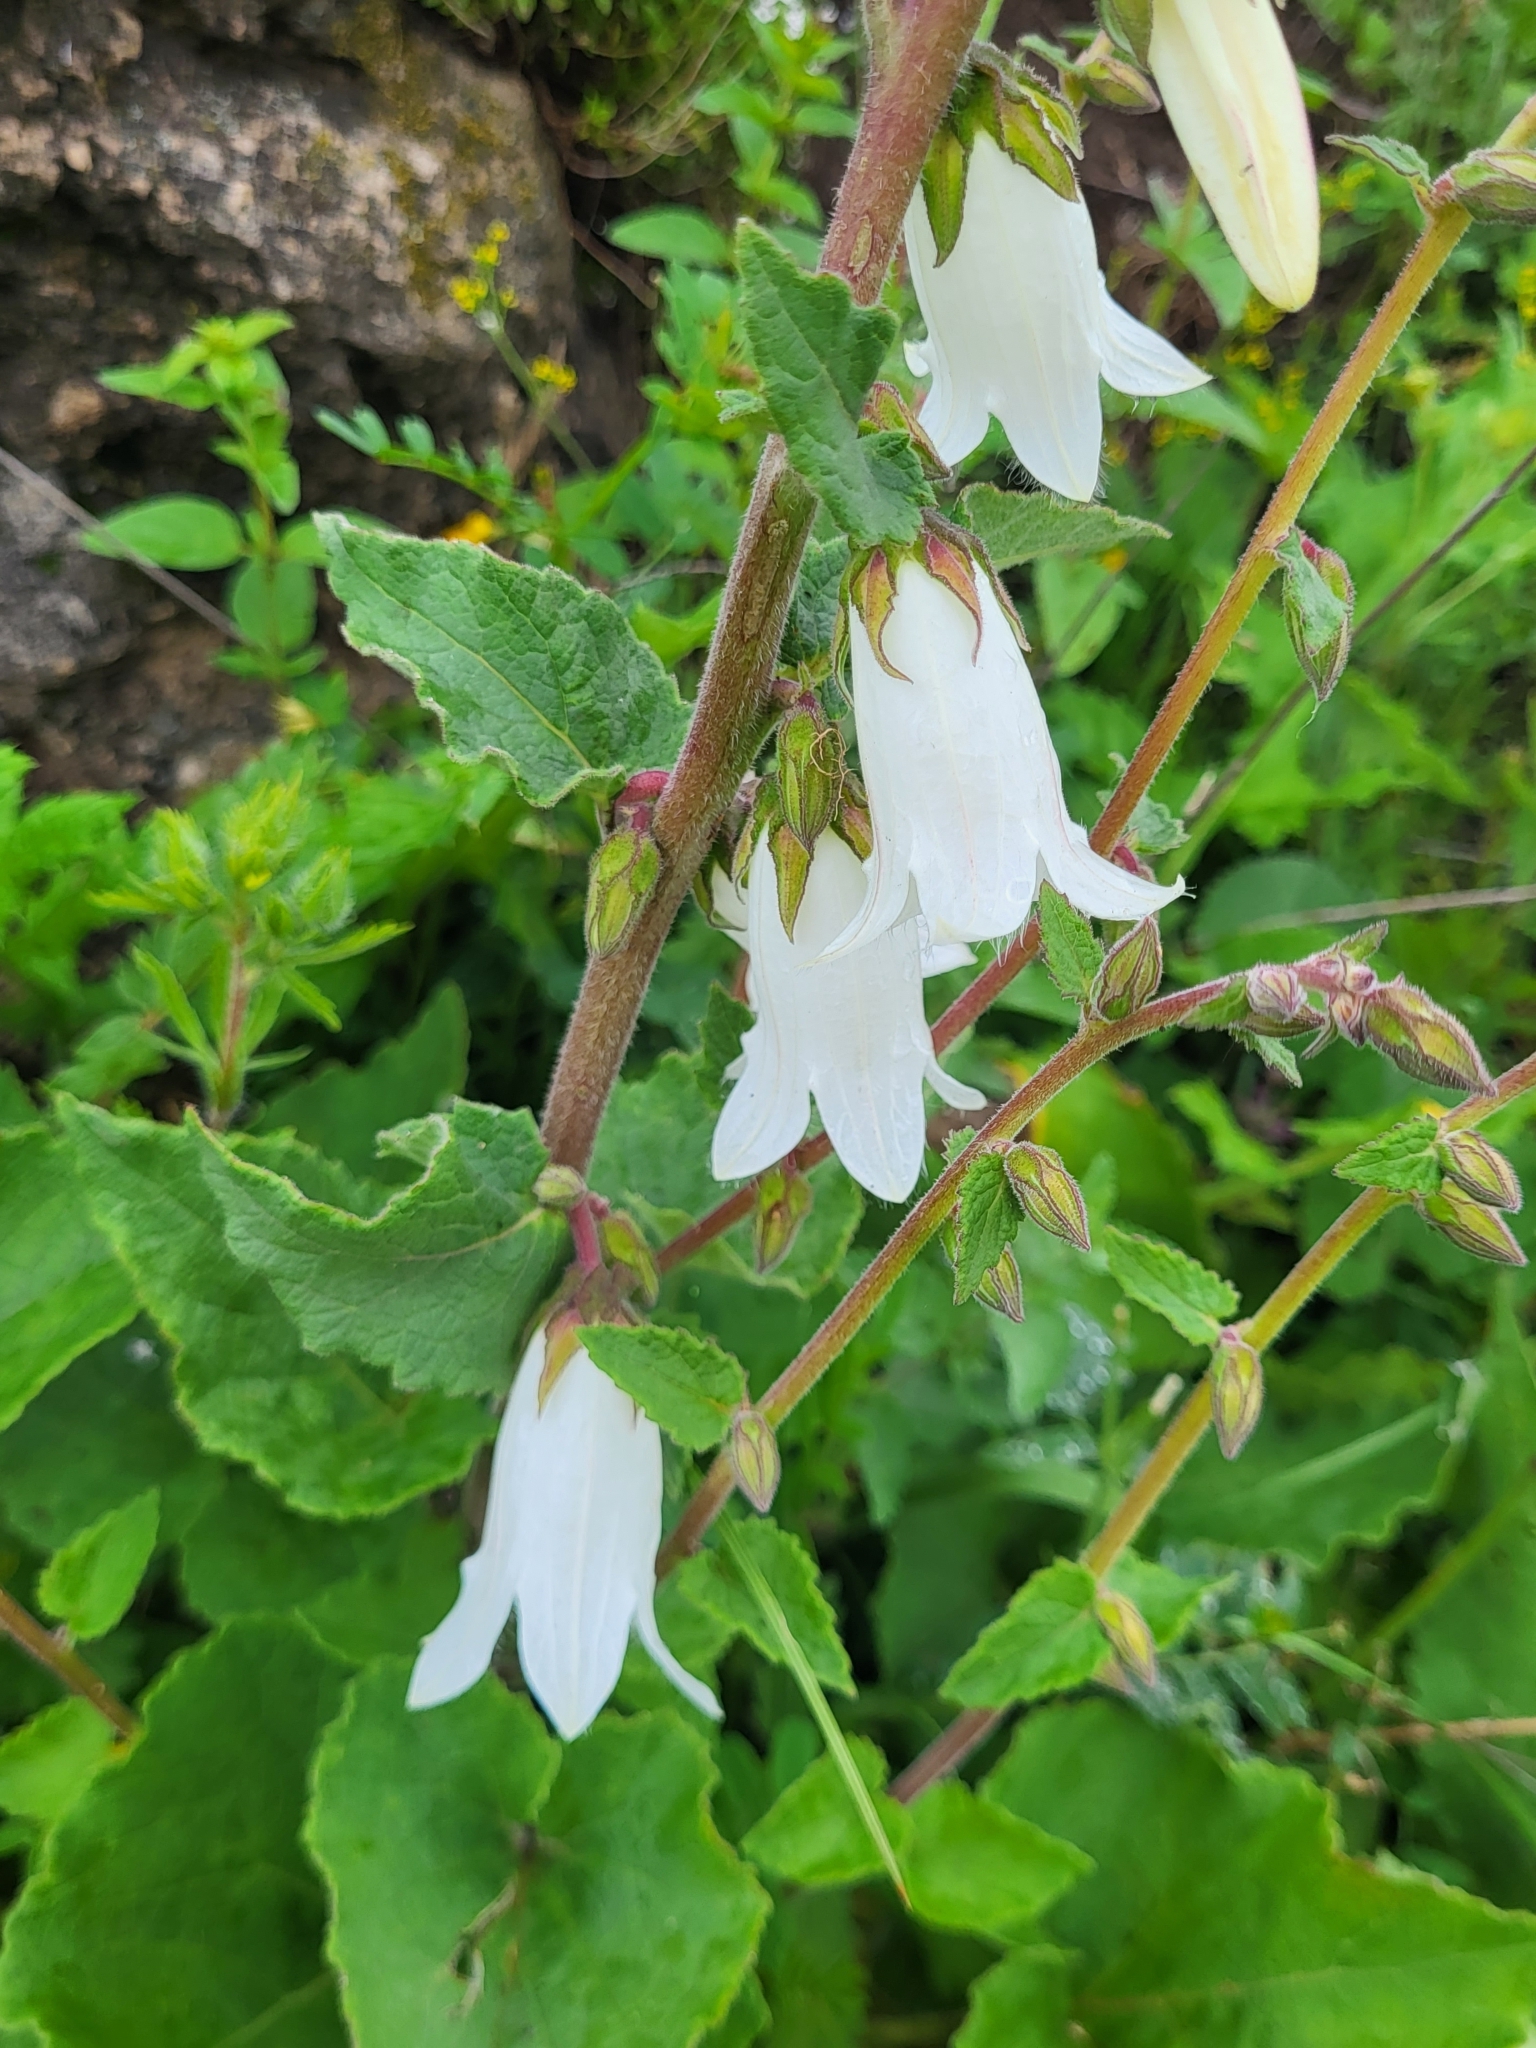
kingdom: Plantae
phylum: Tracheophyta
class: Magnoliopsida
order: Asterales
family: Campanulaceae
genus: Campanula
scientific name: Campanula alliariifolia
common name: Cornish bellflower
